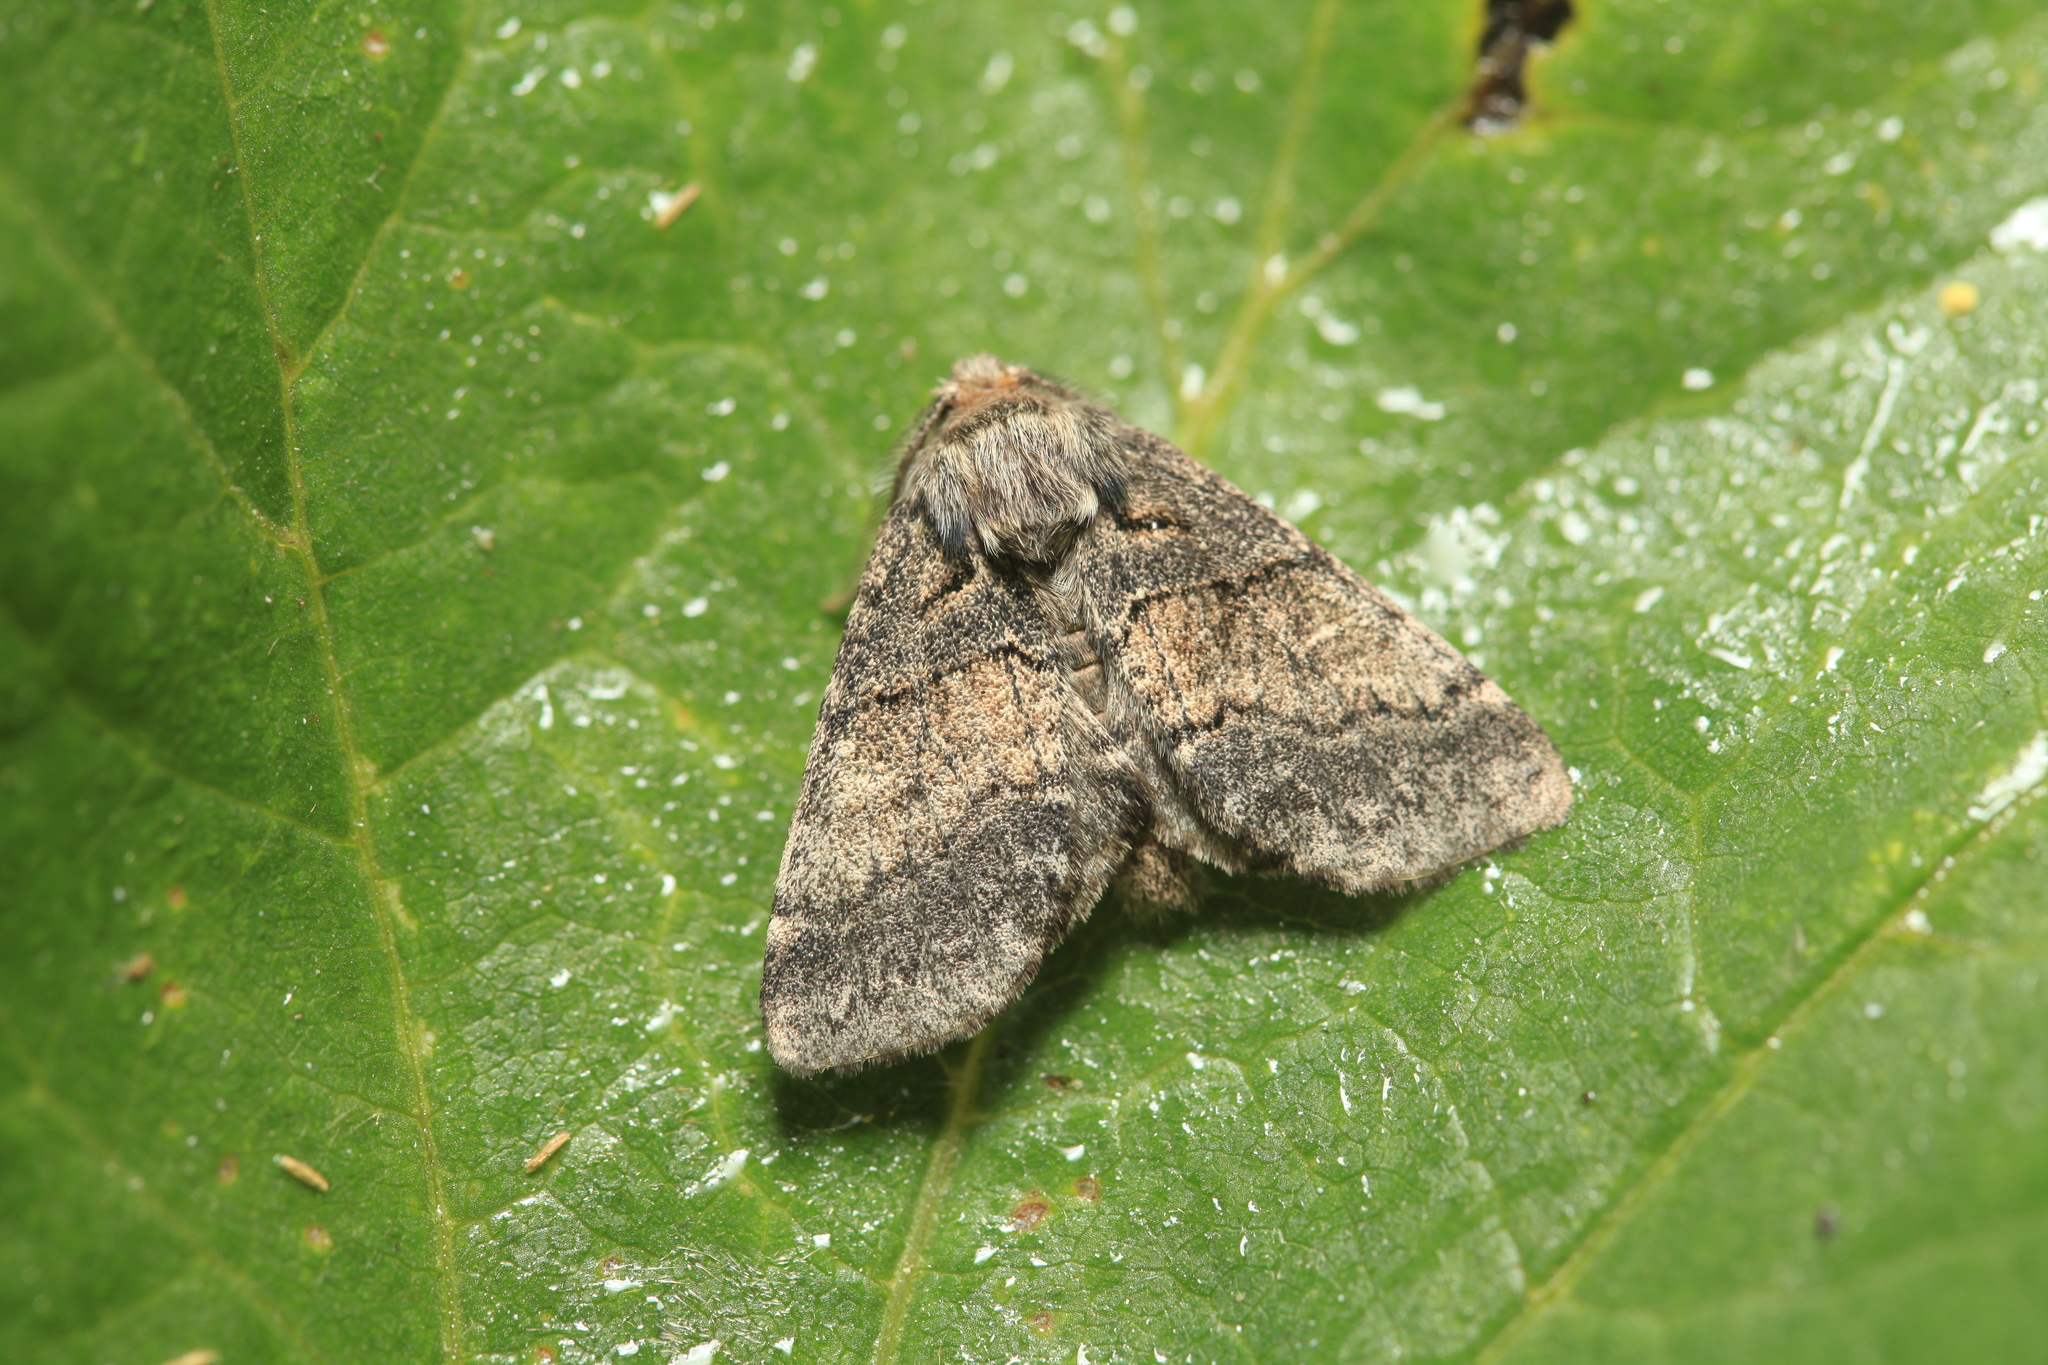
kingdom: Animalia
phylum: Arthropoda
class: Insecta
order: Lepidoptera
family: Notodontidae
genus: Gluphisia
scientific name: Gluphisia crenata
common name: Dusky marbled brown
